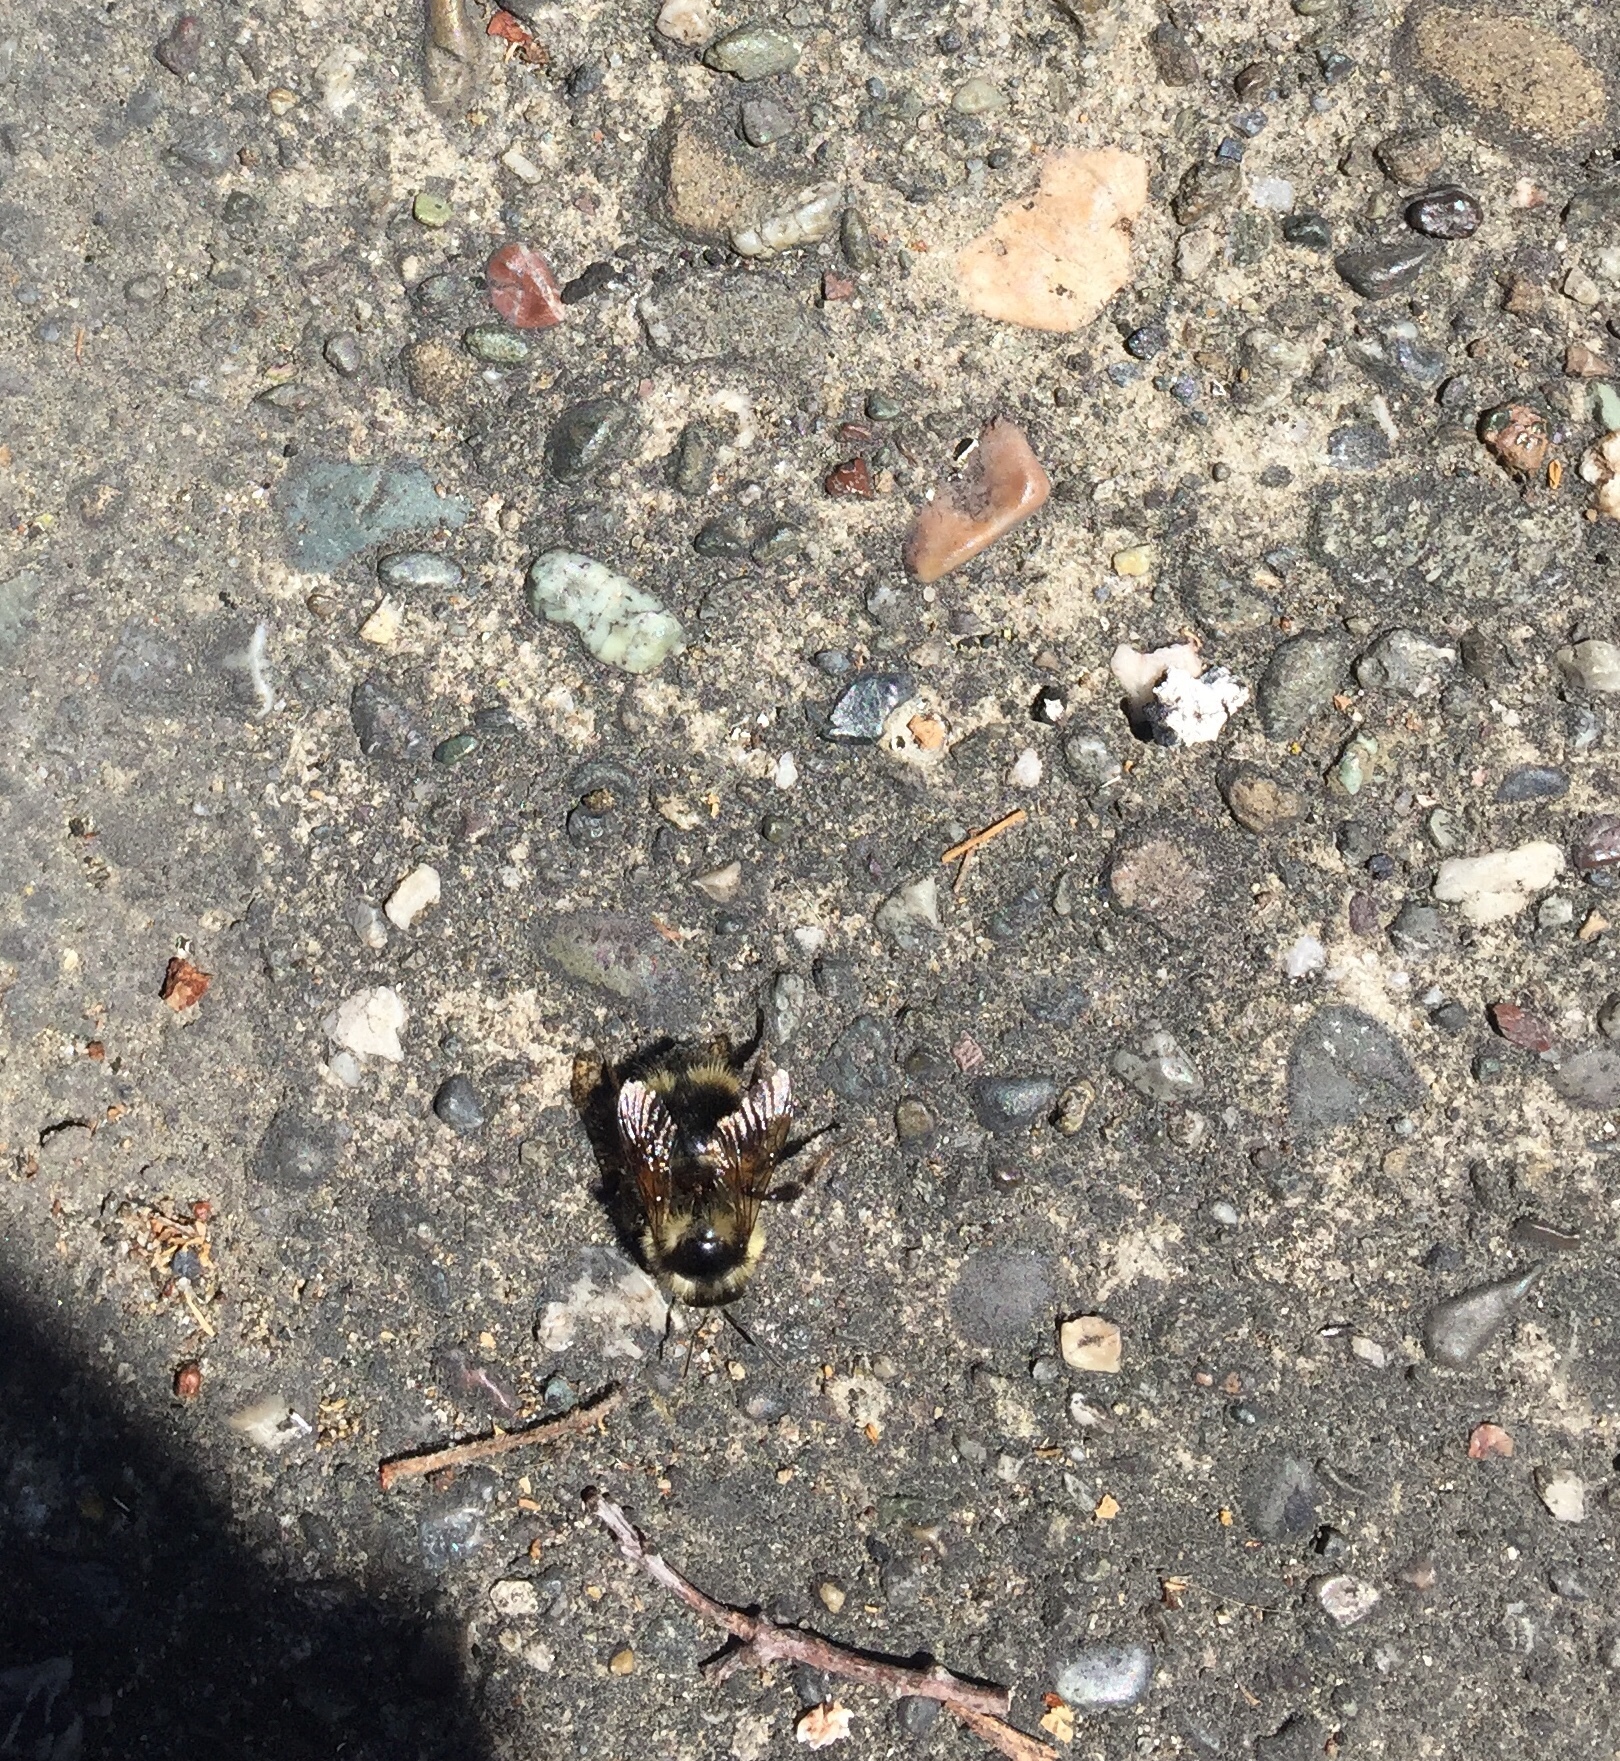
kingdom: Animalia
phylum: Arthropoda
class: Insecta
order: Hymenoptera
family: Apidae
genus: Bombus
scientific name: Bombus melanopygus
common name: Black tail bumble bee
